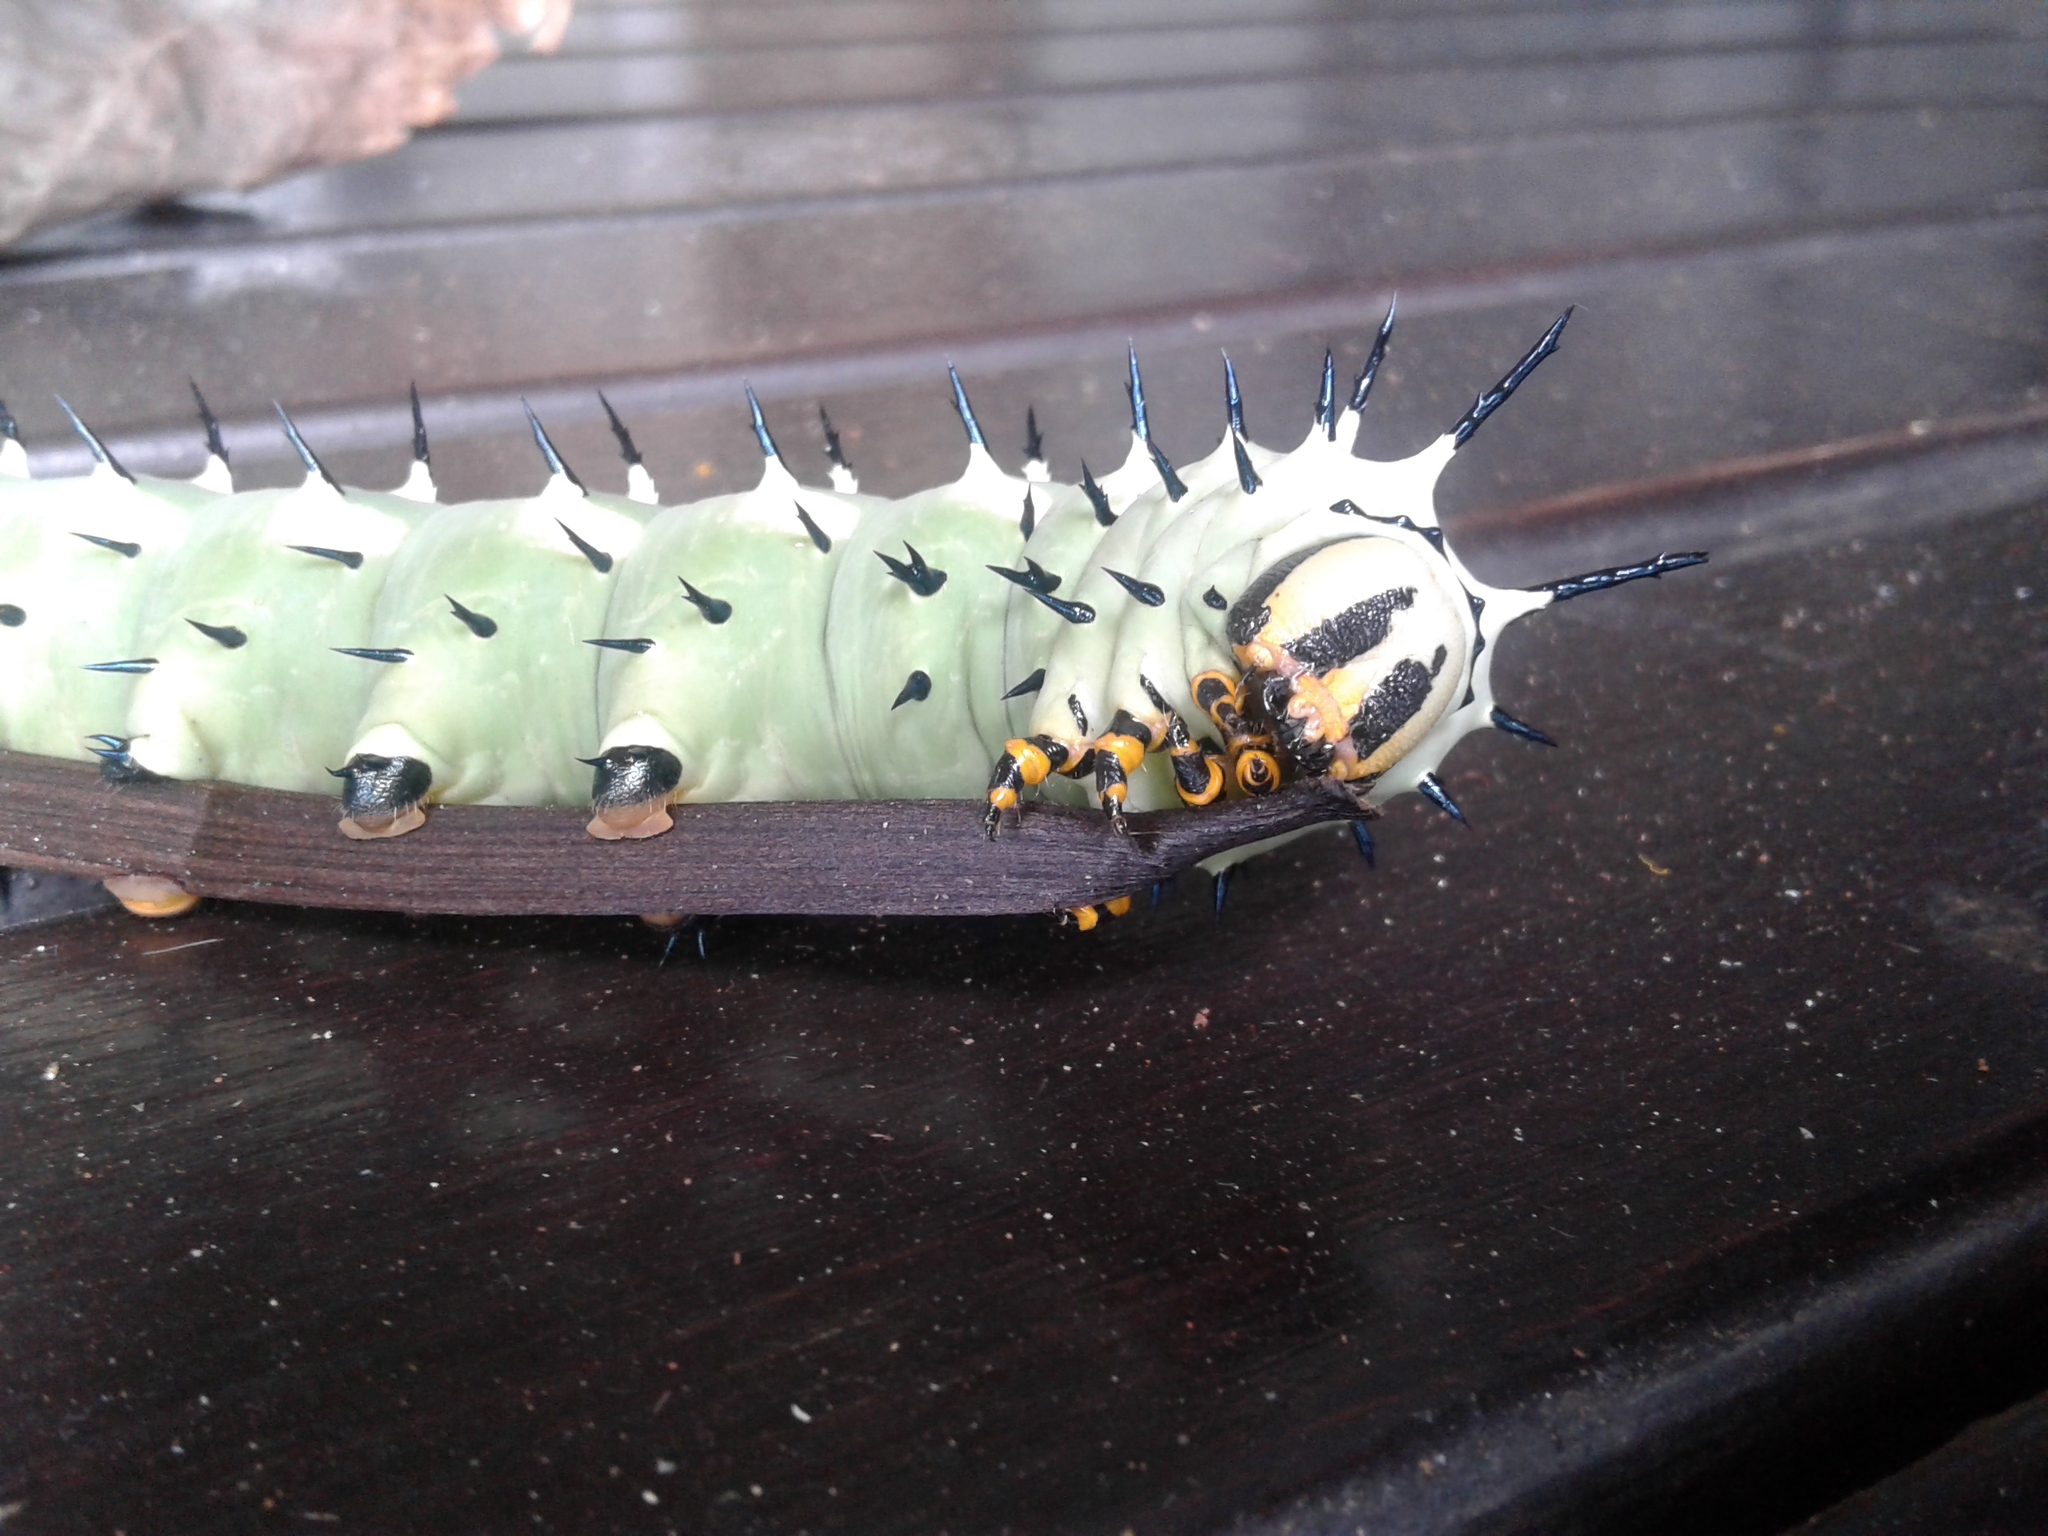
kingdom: Animalia
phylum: Arthropoda
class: Insecta
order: Lepidoptera
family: Sphingidae
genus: Lophostethus
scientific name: Lophostethus dumolinii
